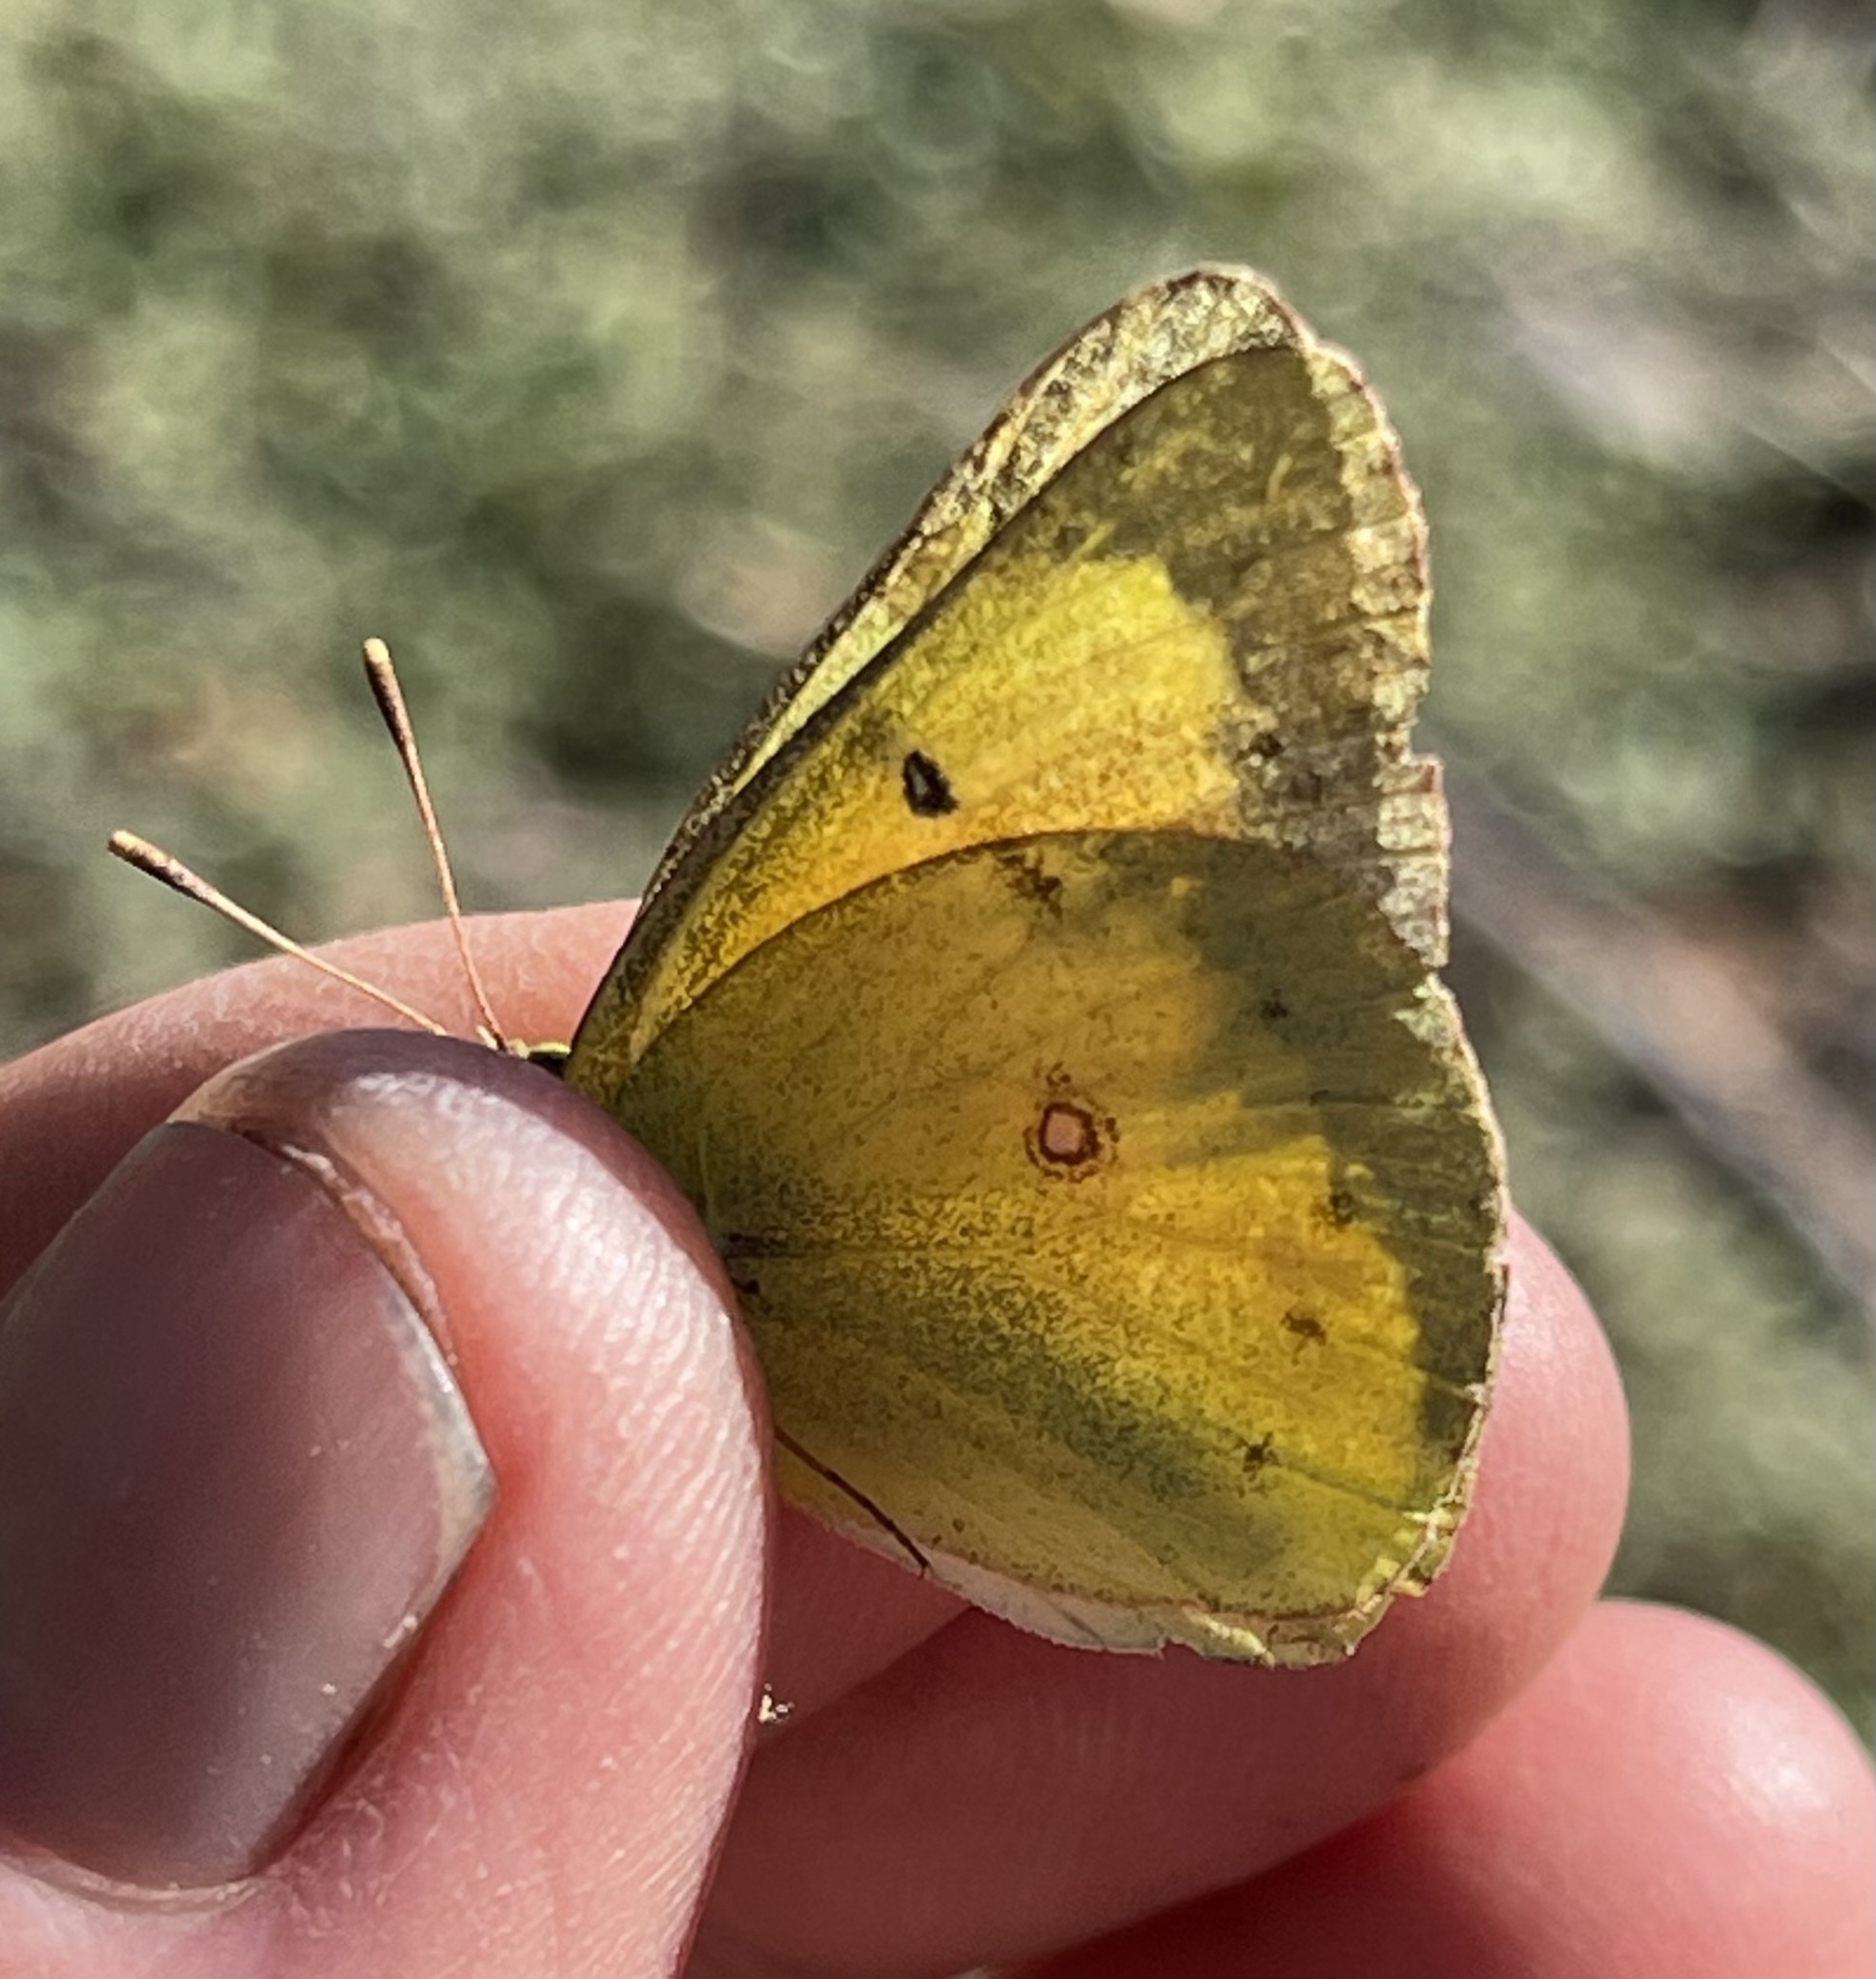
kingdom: Animalia
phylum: Arthropoda
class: Insecta
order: Lepidoptera
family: Pieridae
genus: Colias
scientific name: Colias eurytheme
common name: Alfalfa butterfly
